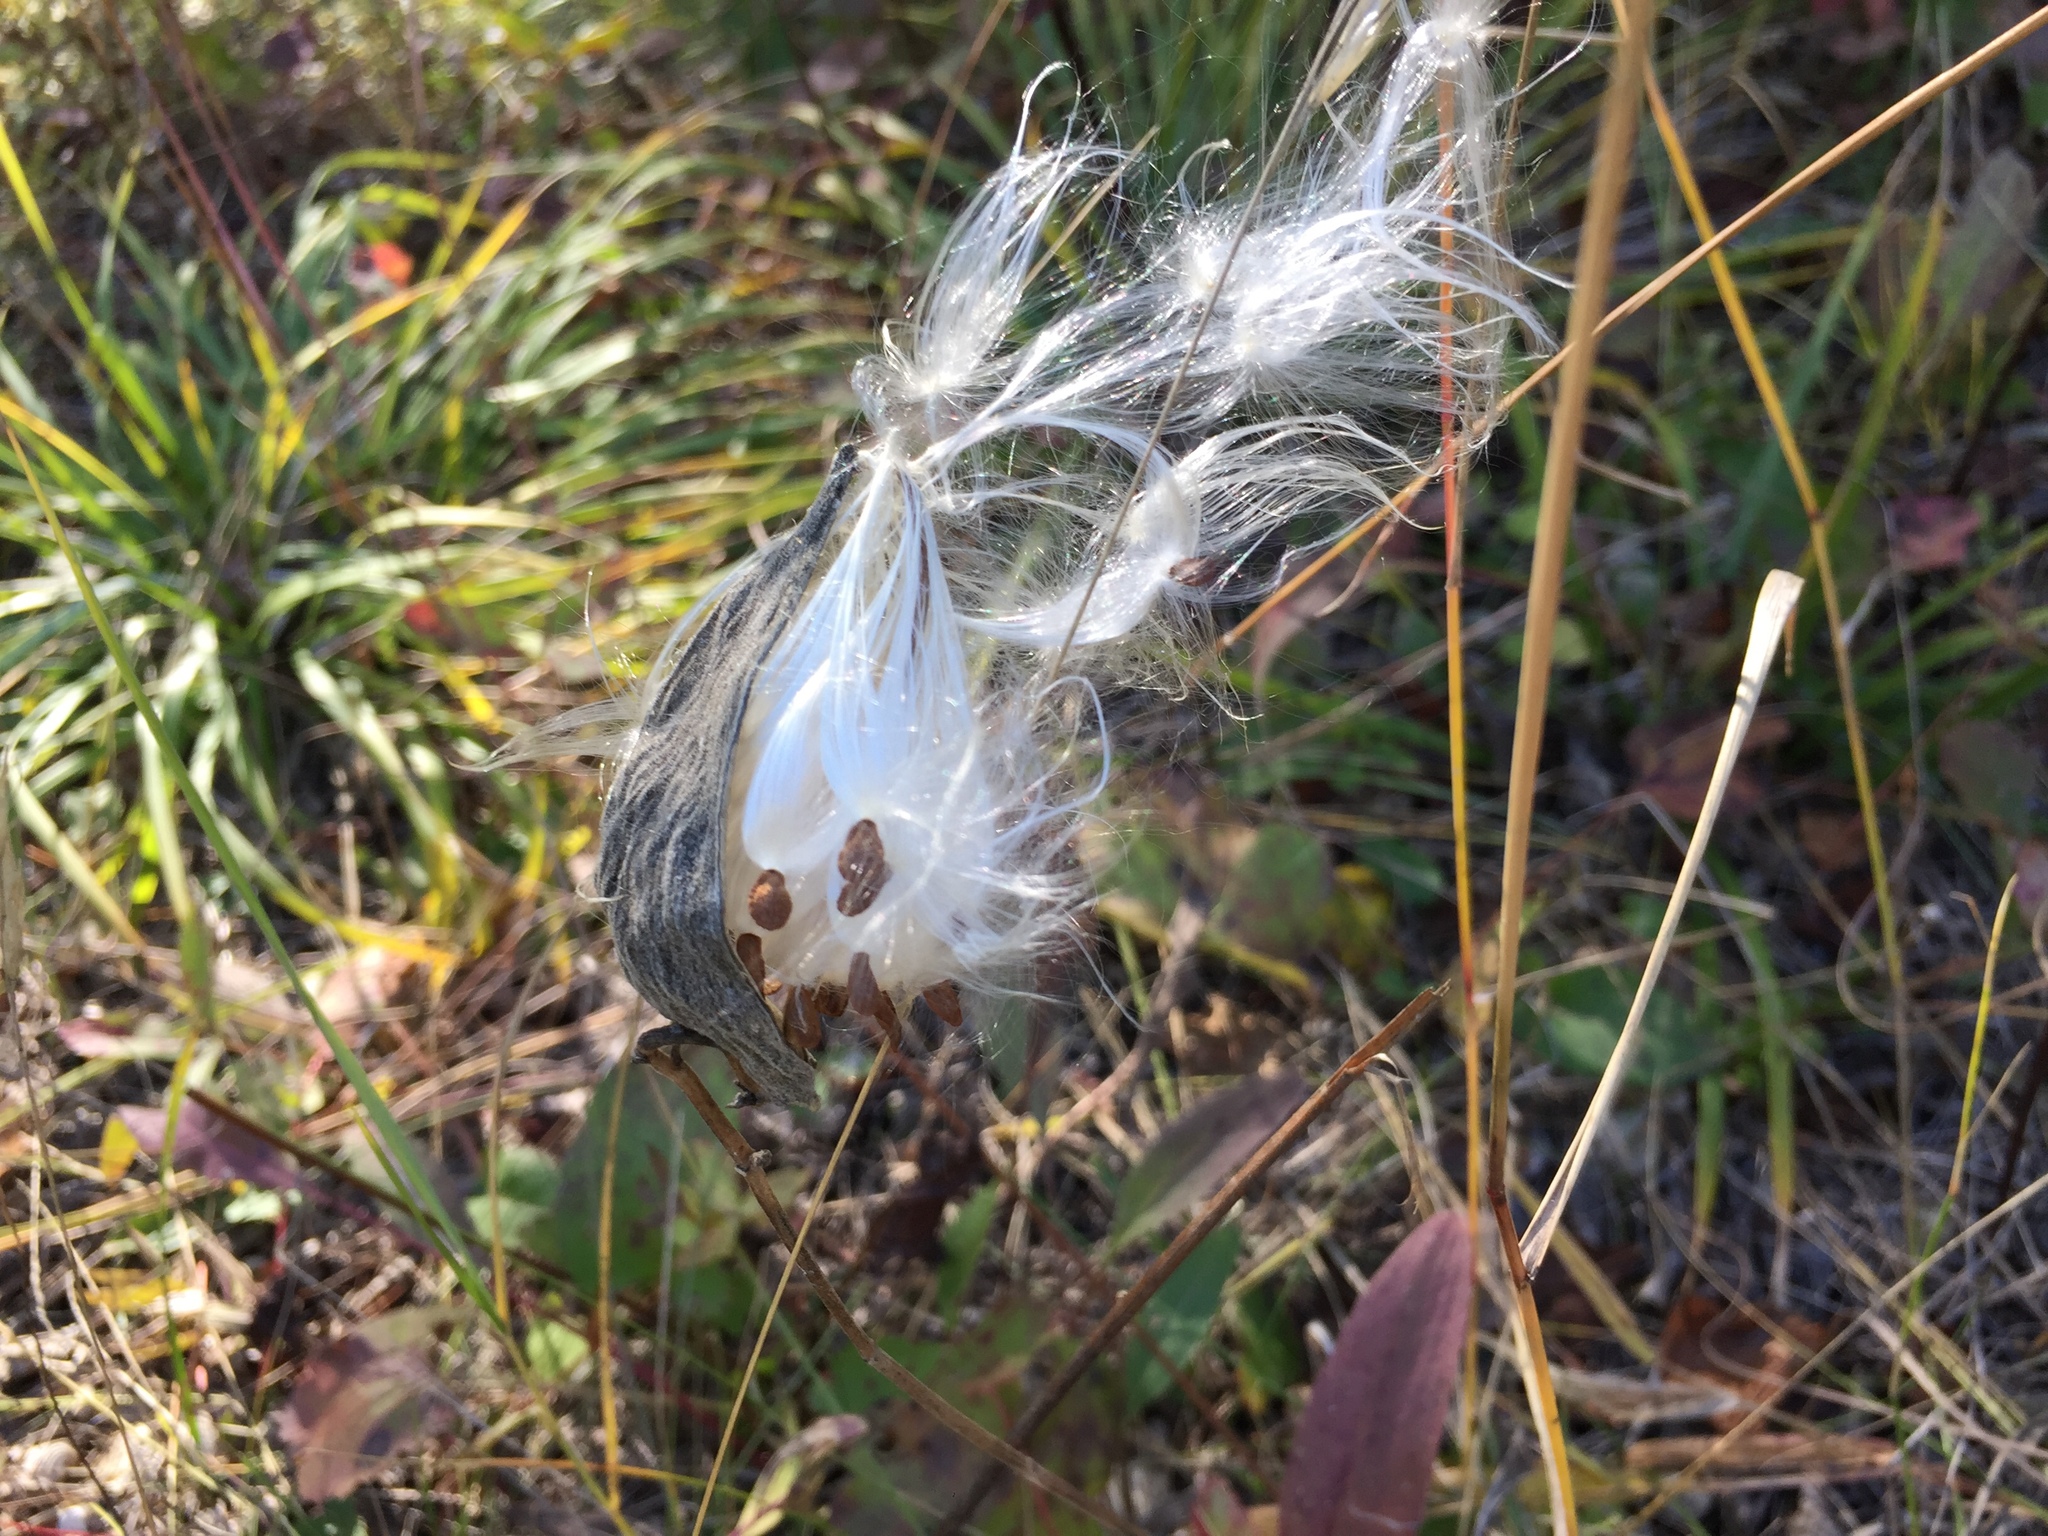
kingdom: Plantae
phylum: Tracheophyta
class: Magnoliopsida
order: Gentianales
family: Apocynaceae
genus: Asclepias
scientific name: Asclepias ovalifolia
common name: Dwarf milkweed
